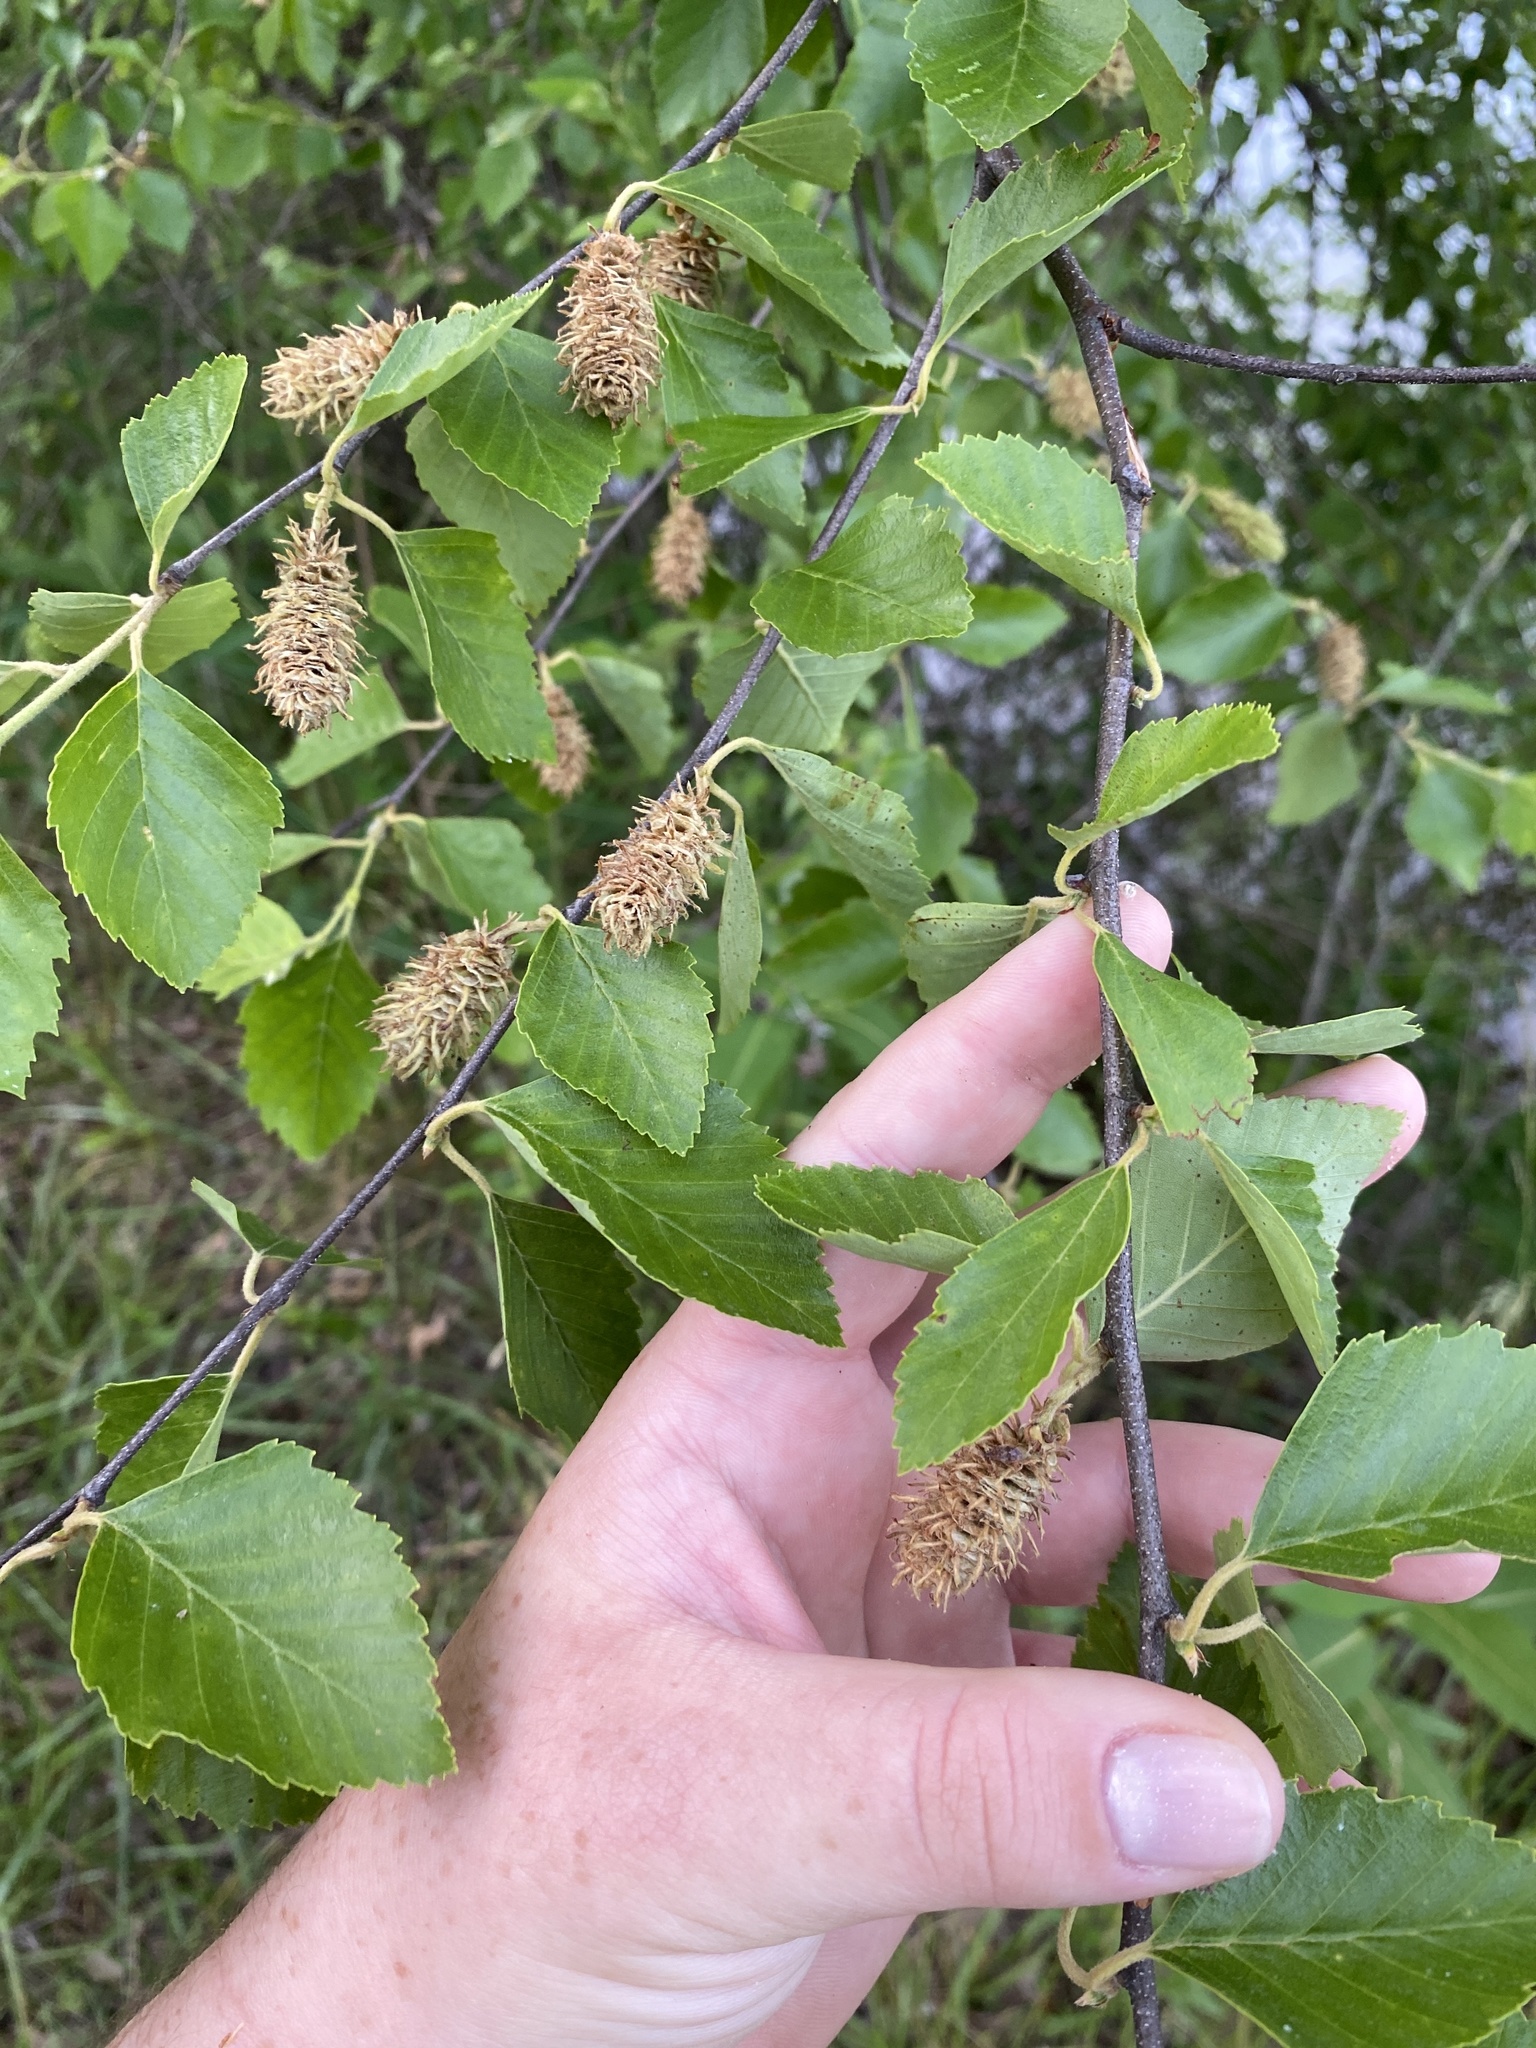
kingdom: Plantae
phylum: Tracheophyta
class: Magnoliopsida
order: Fagales
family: Betulaceae
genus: Betula
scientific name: Betula nigra
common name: Black birch
